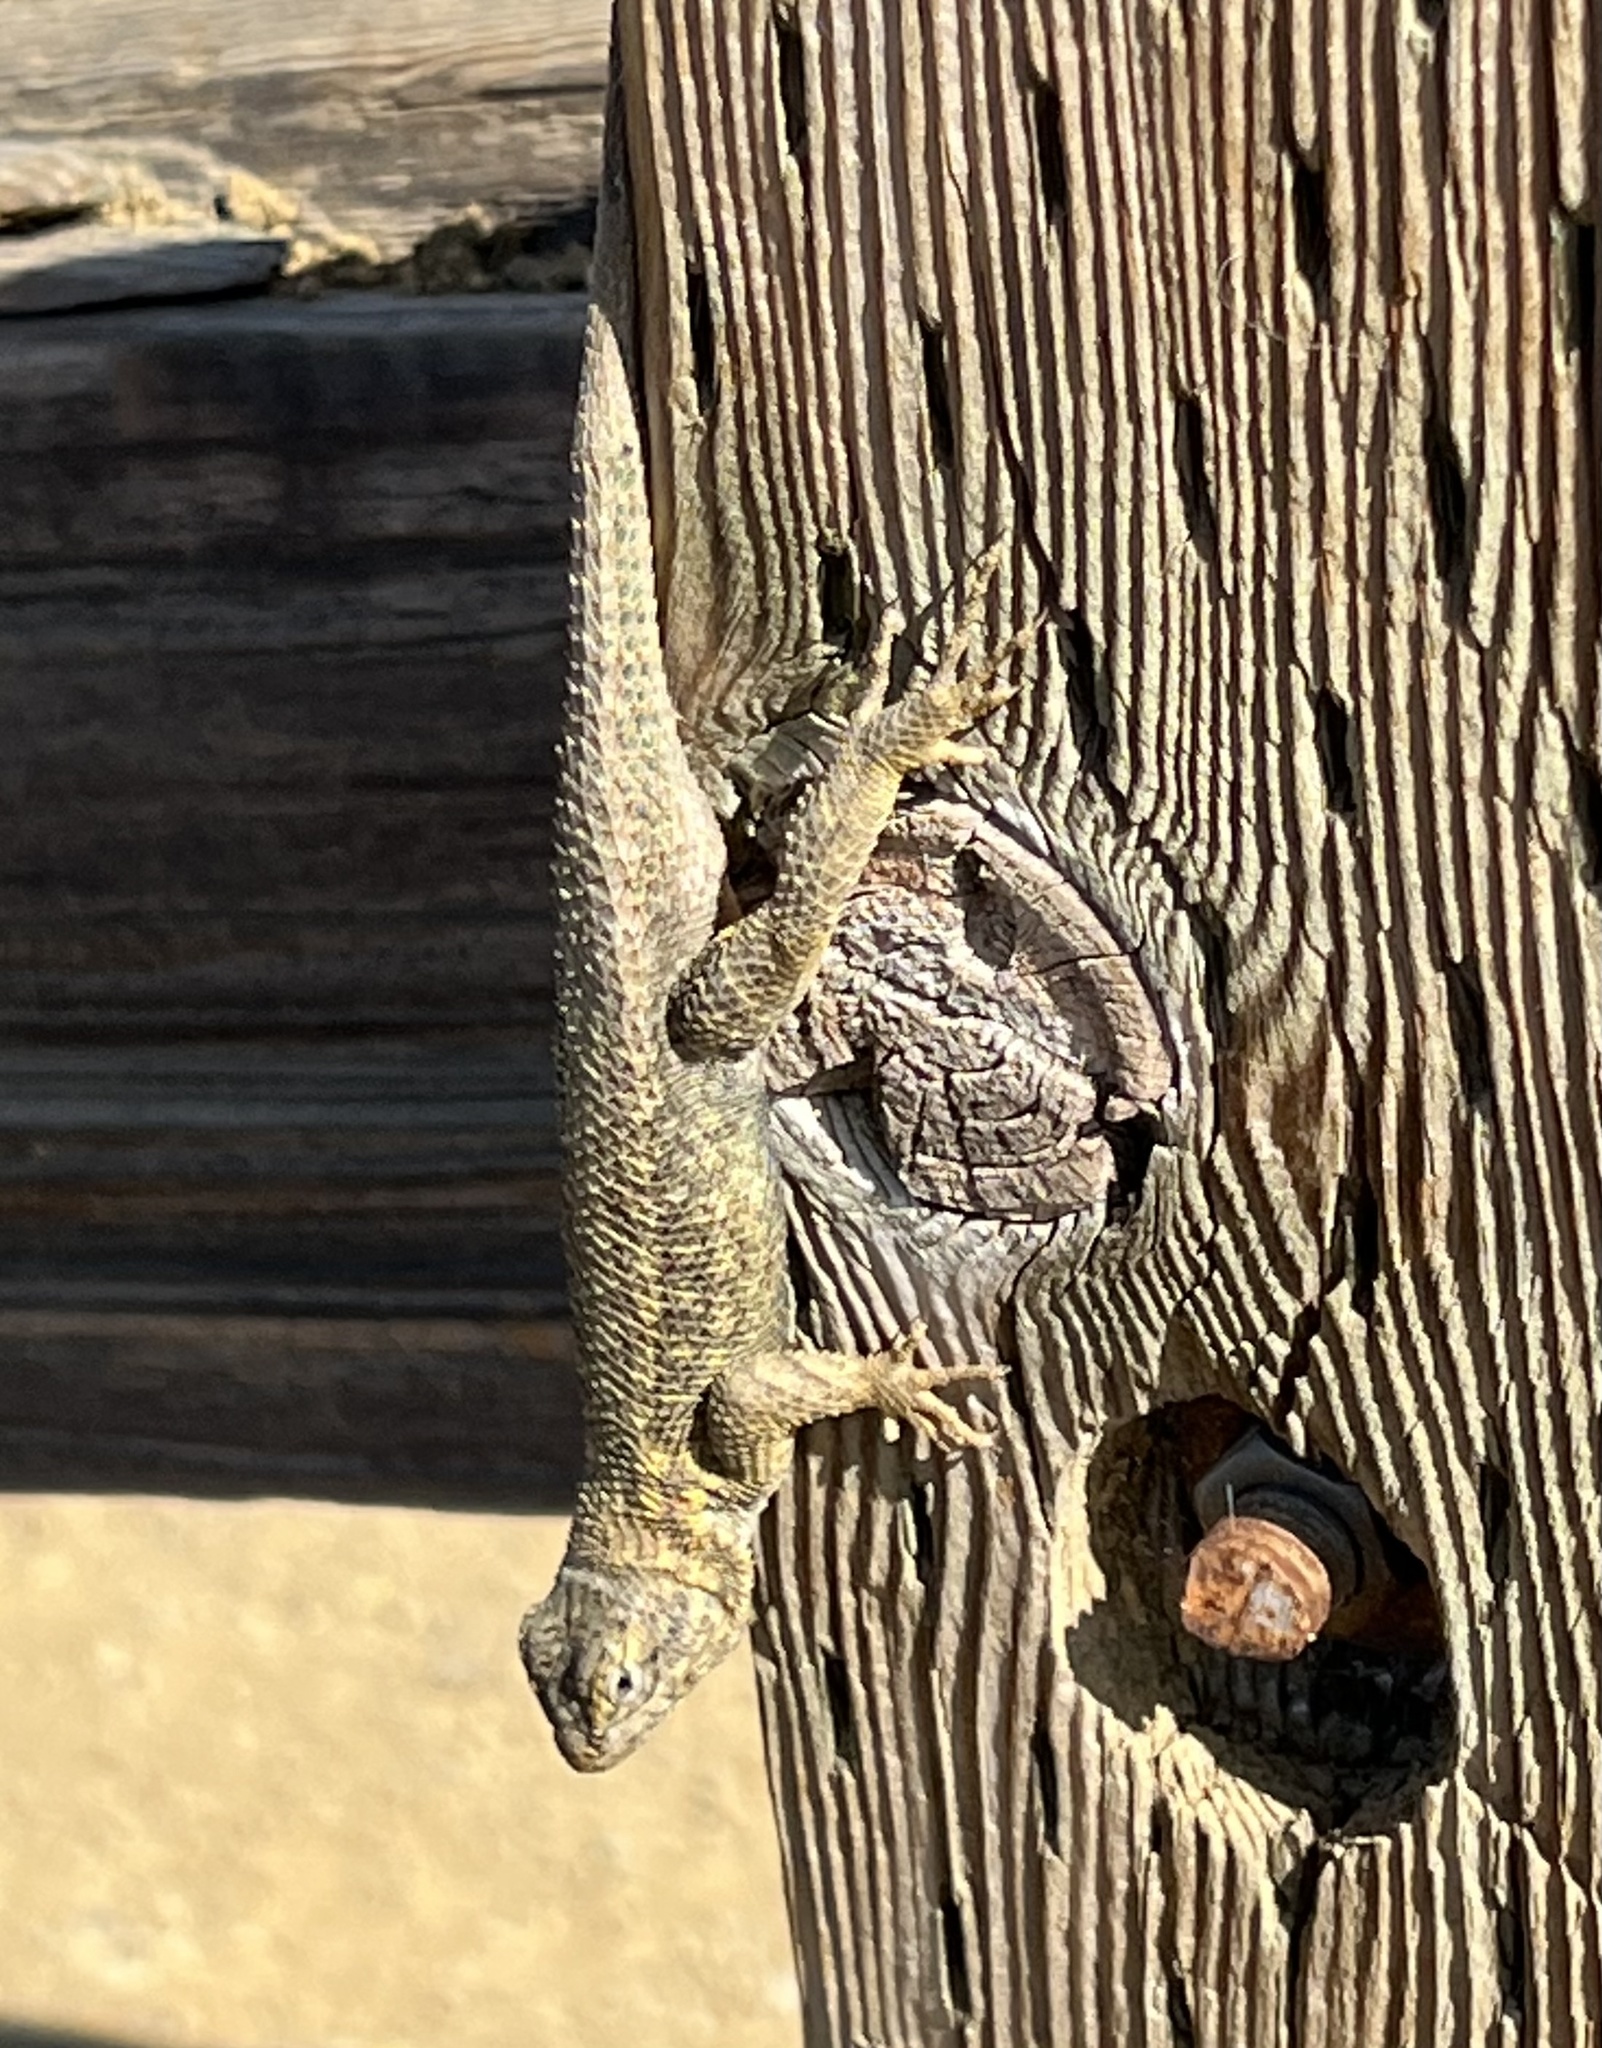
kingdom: Animalia
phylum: Chordata
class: Squamata
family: Phrynosomatidae
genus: Sceloporus
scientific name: Sceloporus occidentalis
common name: Western fence lizard
